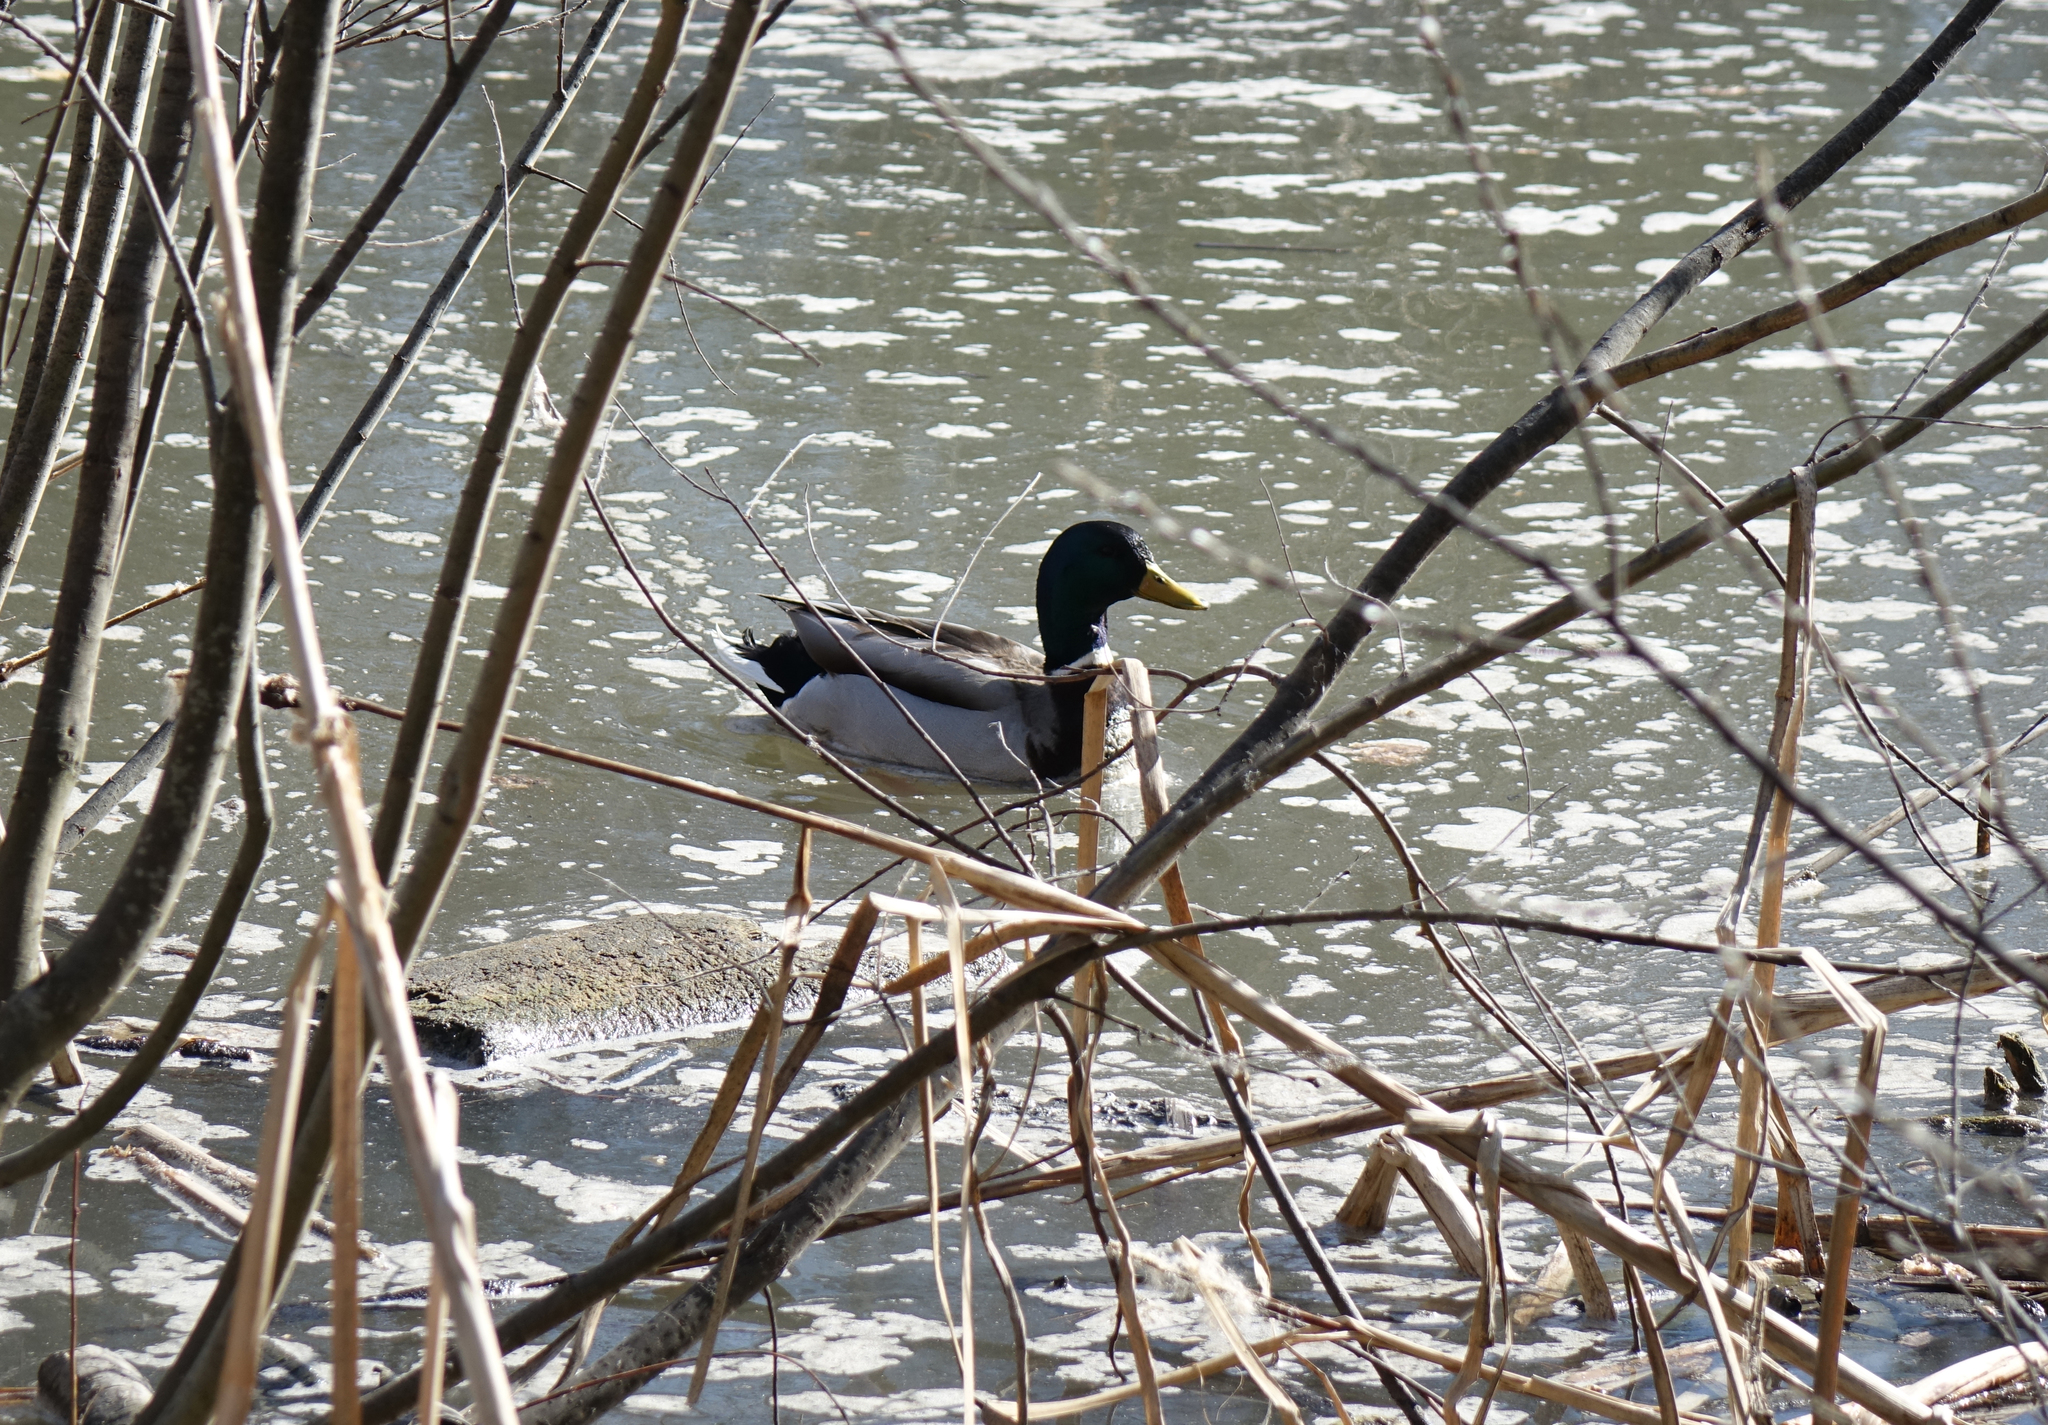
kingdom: Animalia
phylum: Chordata
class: Aves
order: Anseriformes
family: Anatidae
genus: Anas
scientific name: Anas platyrhynchos
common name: Mallard
